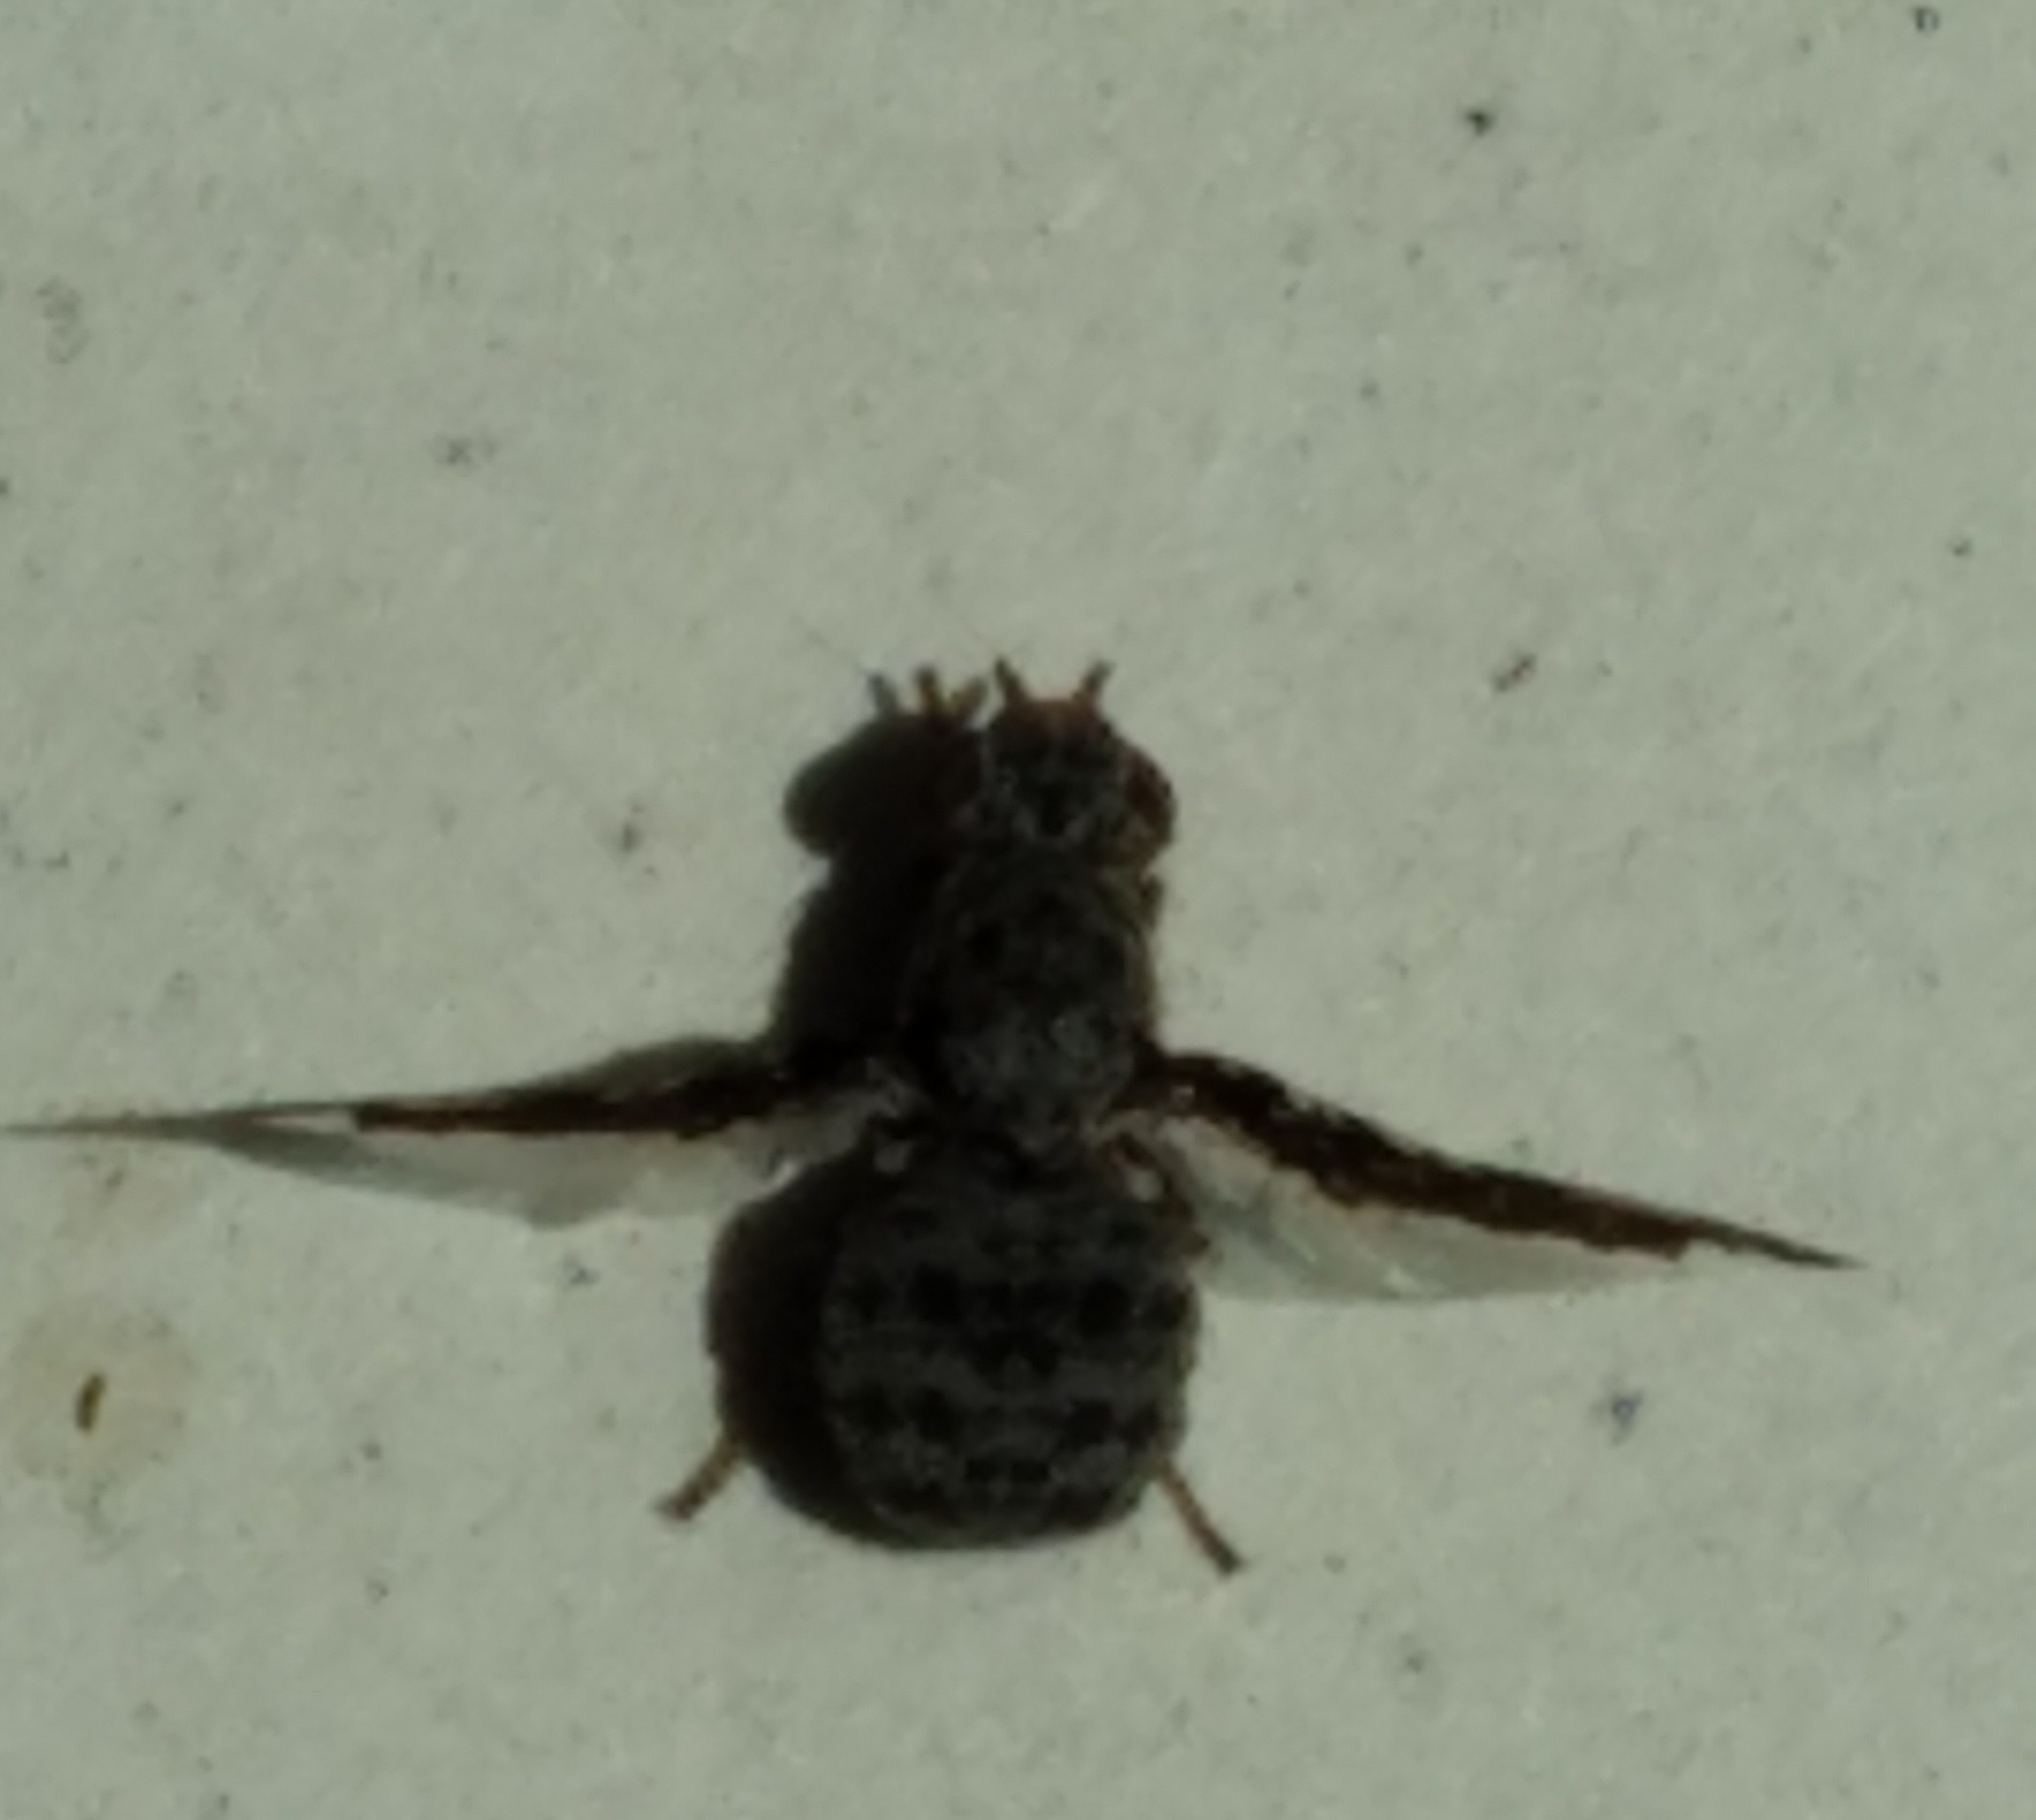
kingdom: Animalia
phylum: Arthropoda
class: Insecta
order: Diptera
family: Ulidiidae
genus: Callopistromyia
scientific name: Callopistromyia strigula
